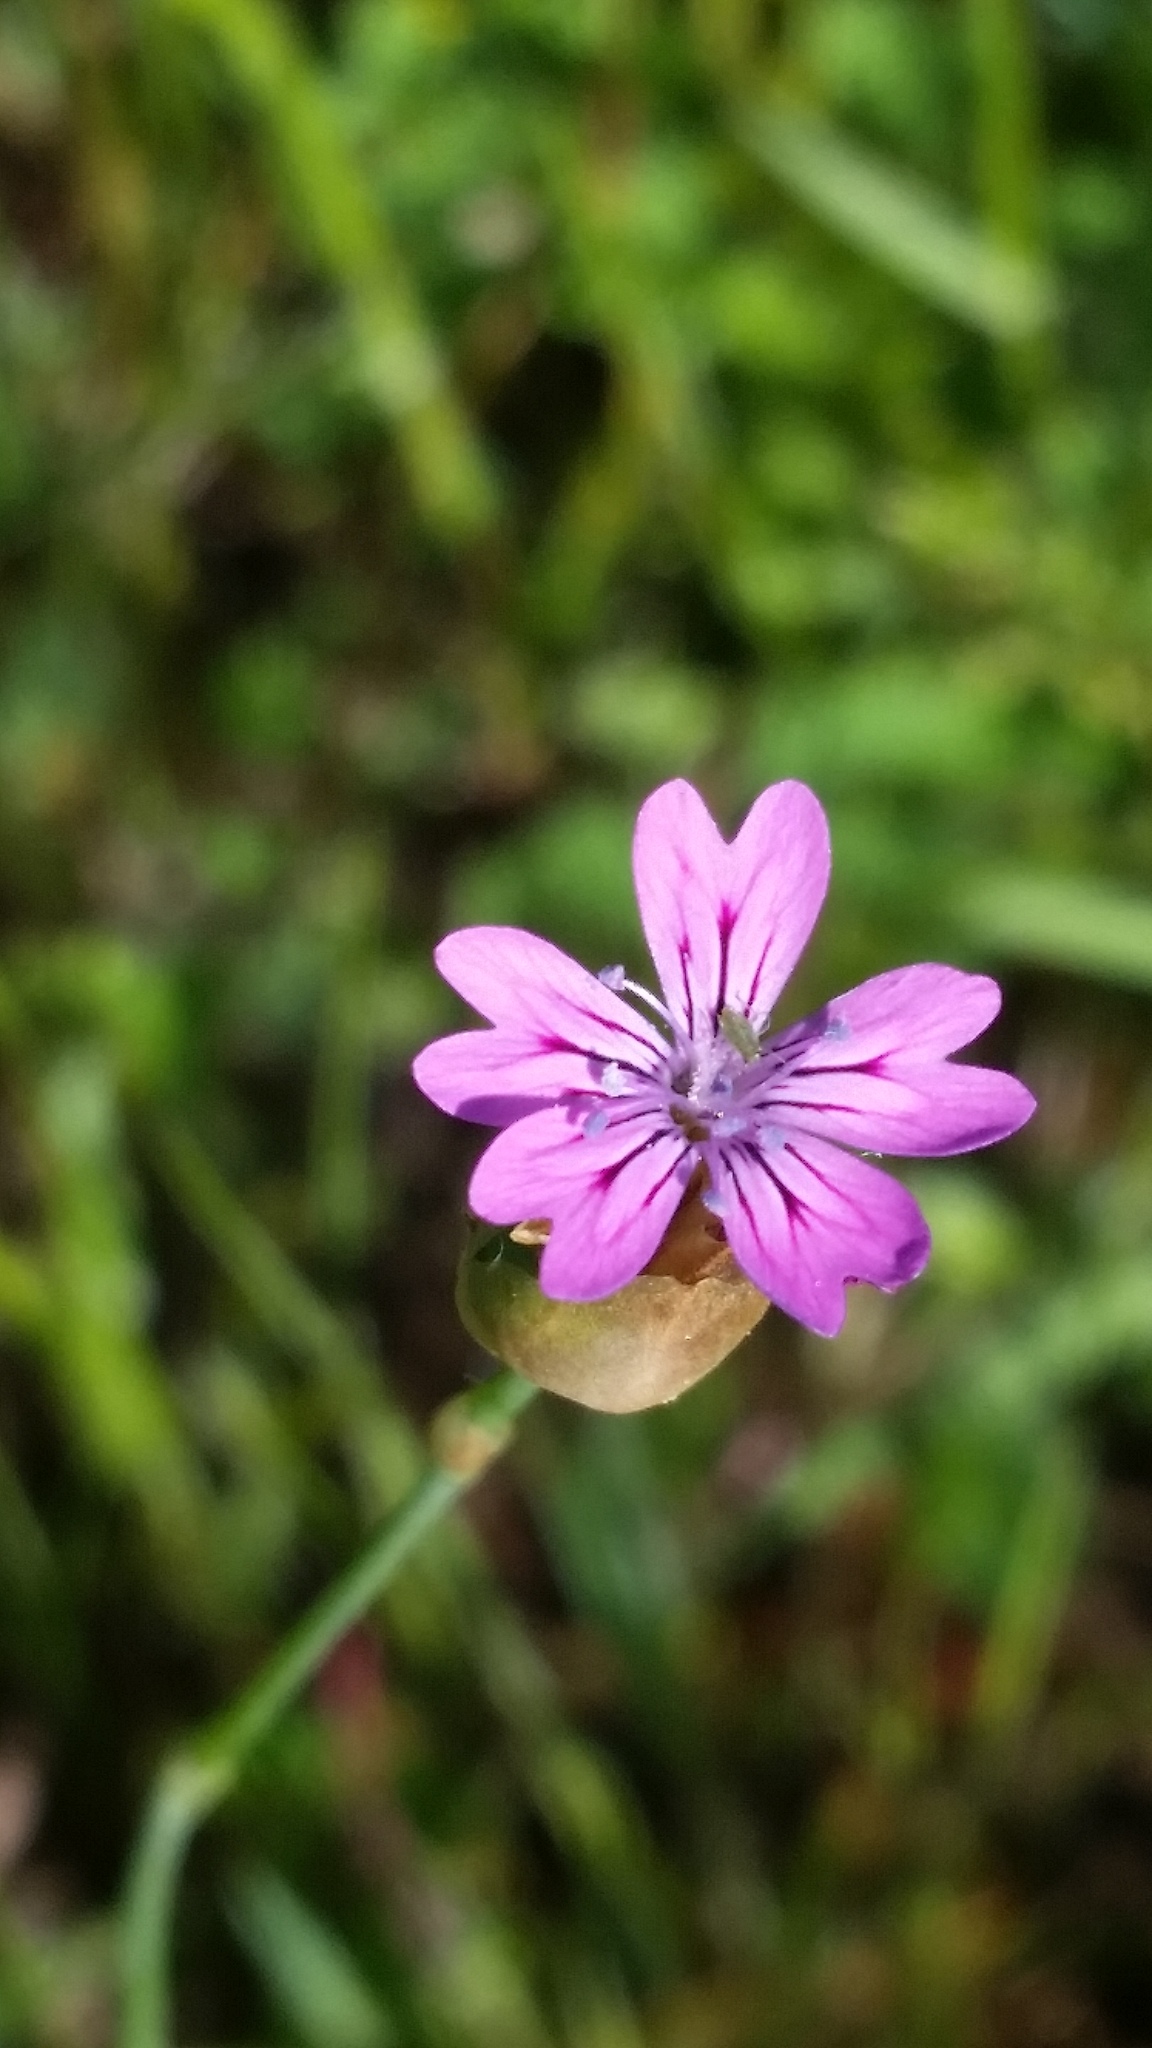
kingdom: Plantae
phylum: Tracheophyta
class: Magnoliopsida
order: Caryophyllales
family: Caryophyllaceae
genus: Petrorhagia
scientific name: Petrorhagia dubia
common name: Hairypink
